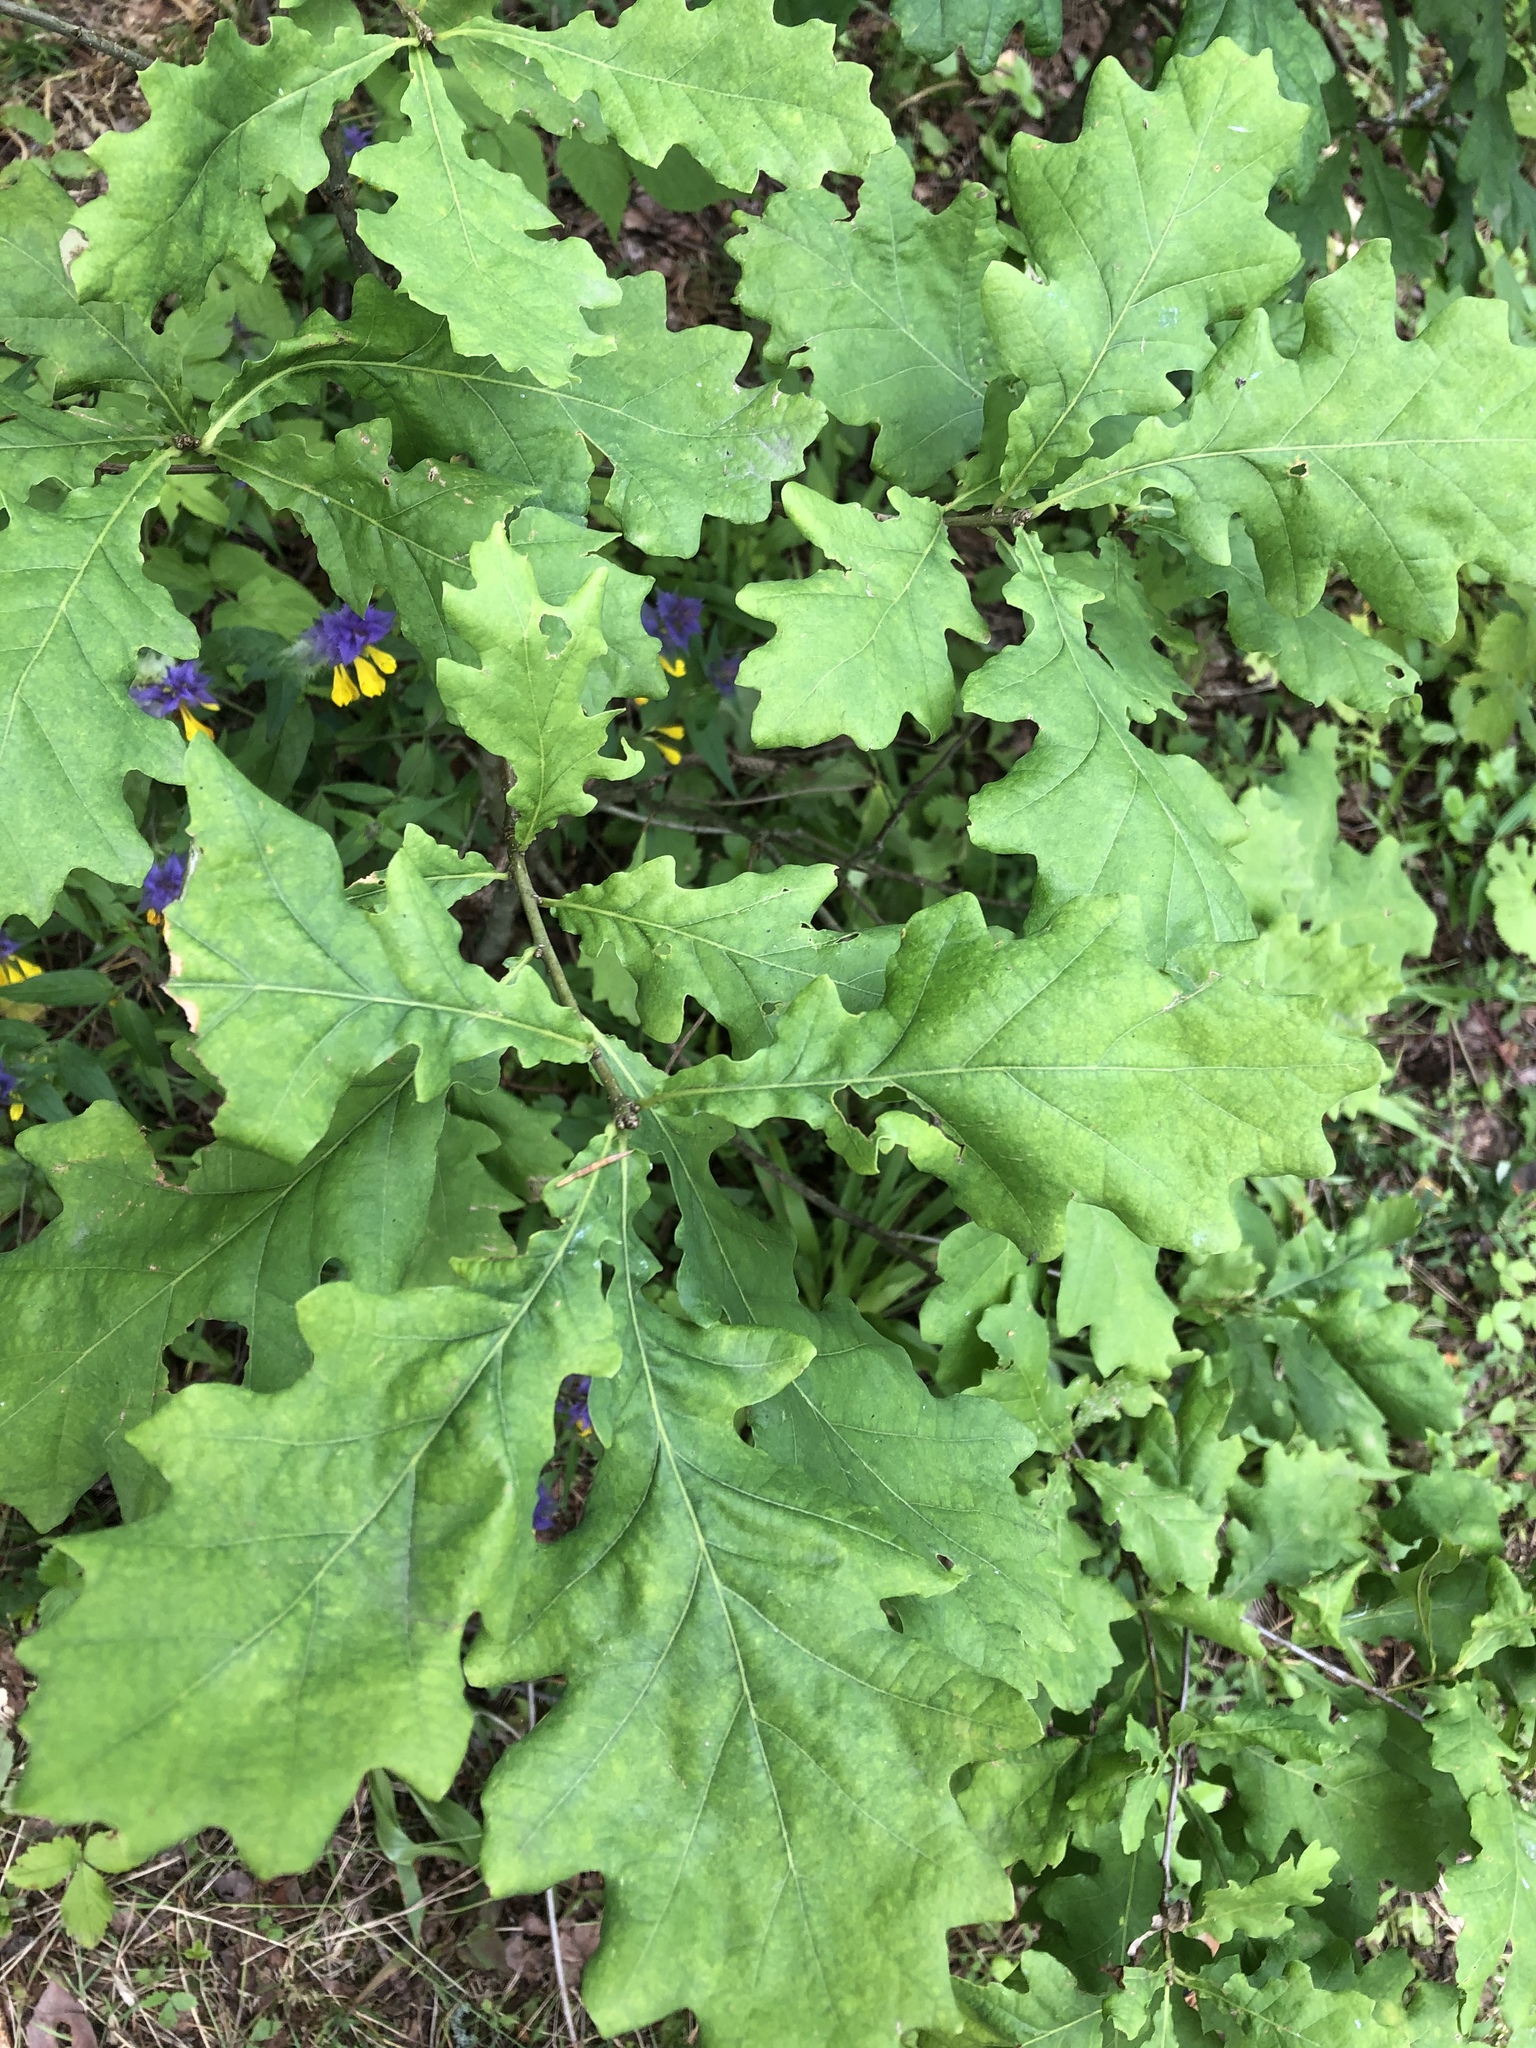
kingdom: Plantae
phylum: Tracheophyta
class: Magnoliopsida
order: Fagales
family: Fagaceae
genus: Quercus
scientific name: Quercus robur
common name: Pedunculate oak
